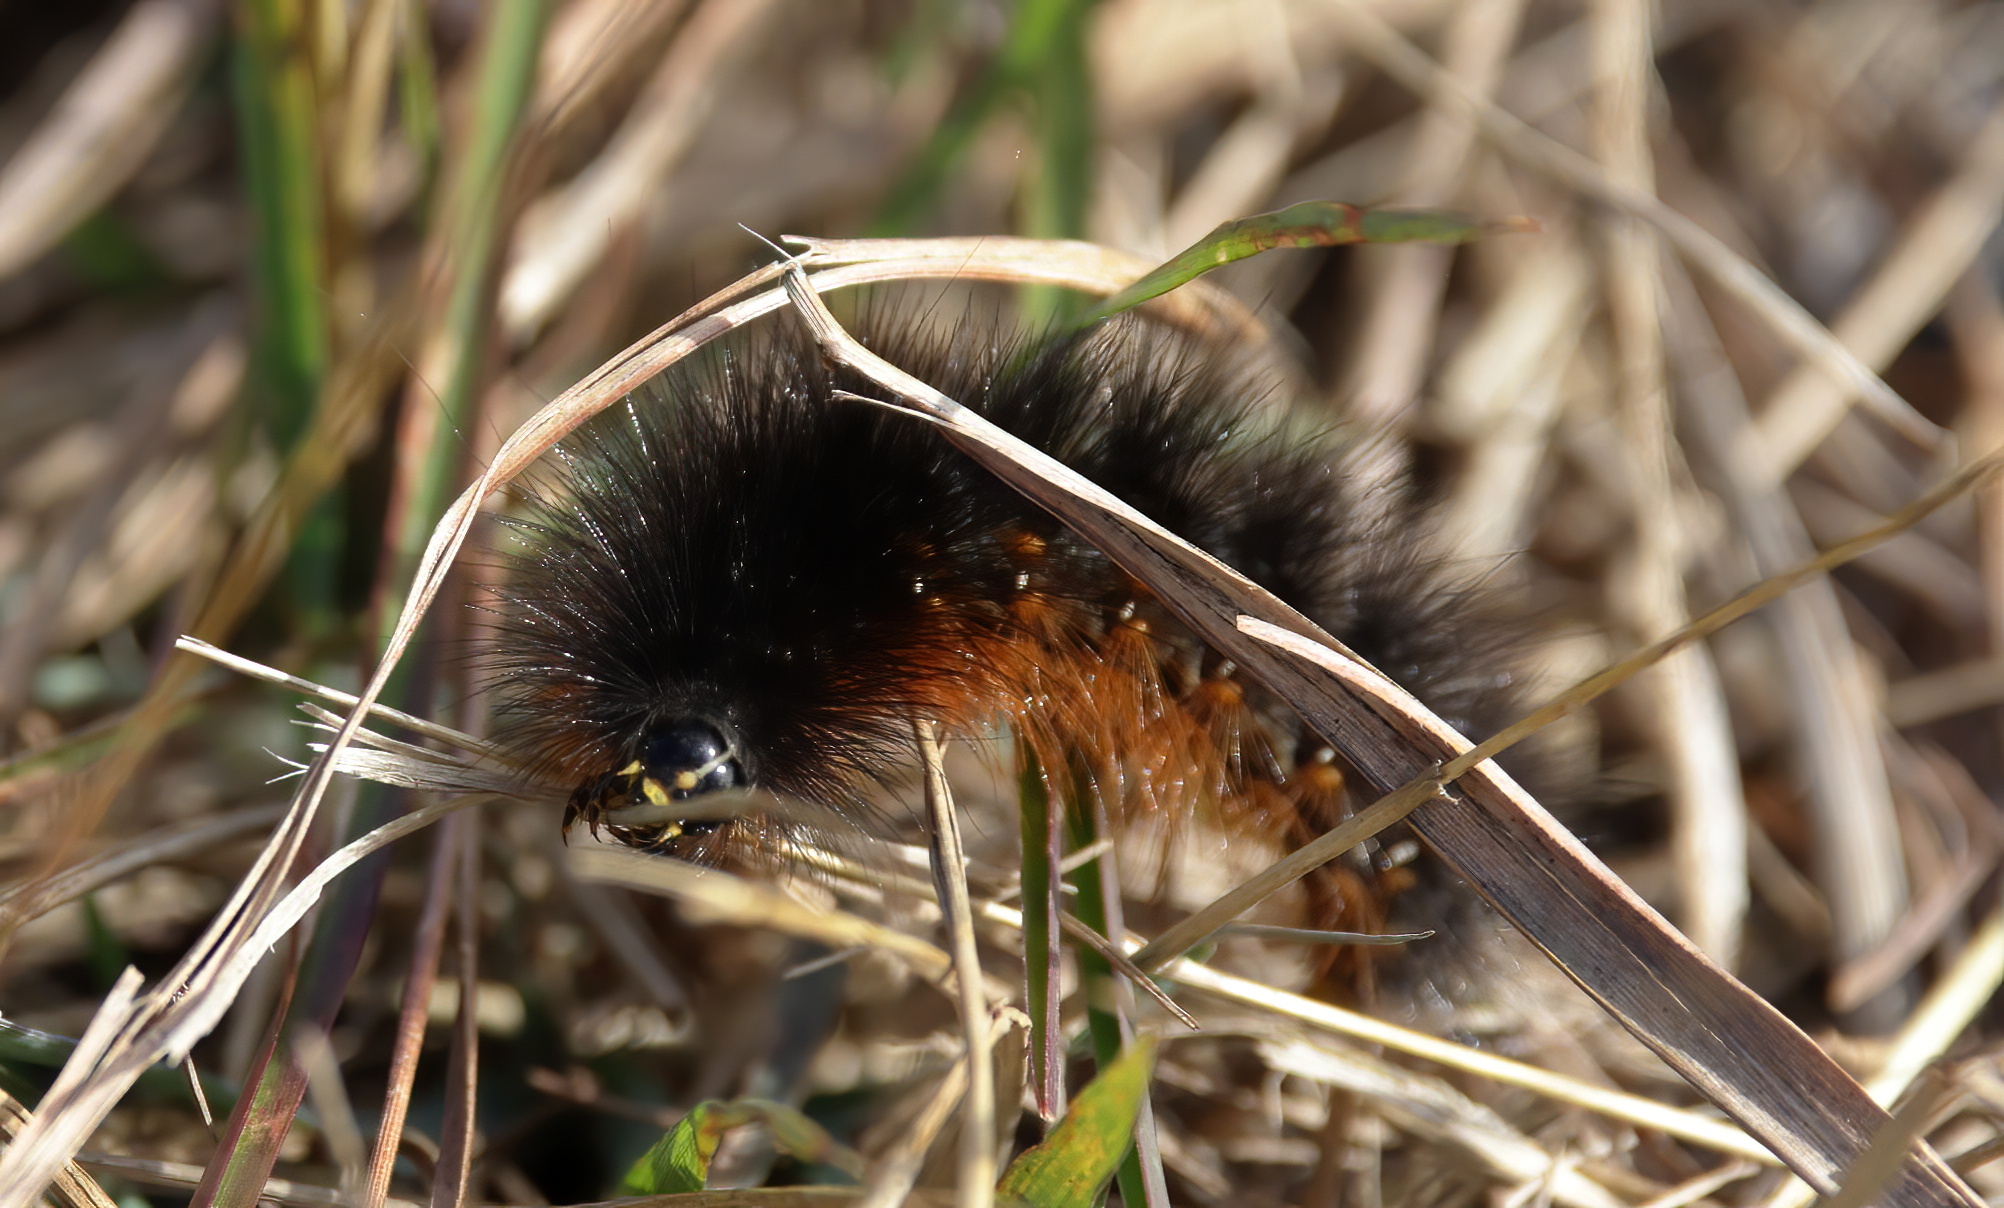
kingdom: Animalia
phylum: Arthropoda
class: Insecta
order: Lepidoptera
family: Erebidae
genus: Estigmene
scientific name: Estigmene acrea
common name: Salt marsh moth
